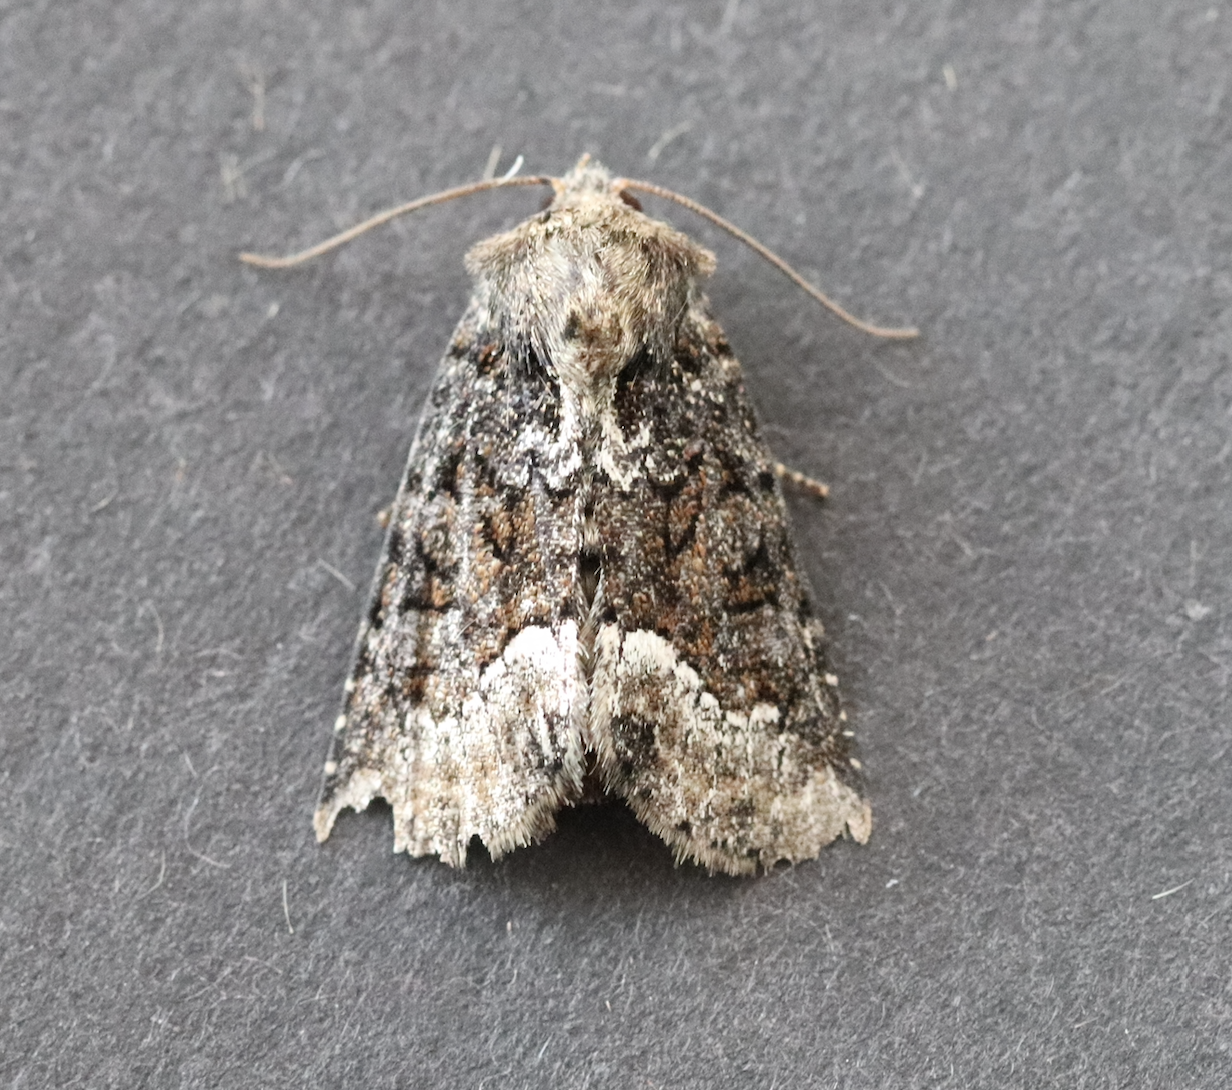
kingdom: Animalia
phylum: Arthropoda
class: Insecta
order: Lepidoptera
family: Noctuidae
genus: Oligia
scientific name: Oligia strigilis
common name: Marbled minor
